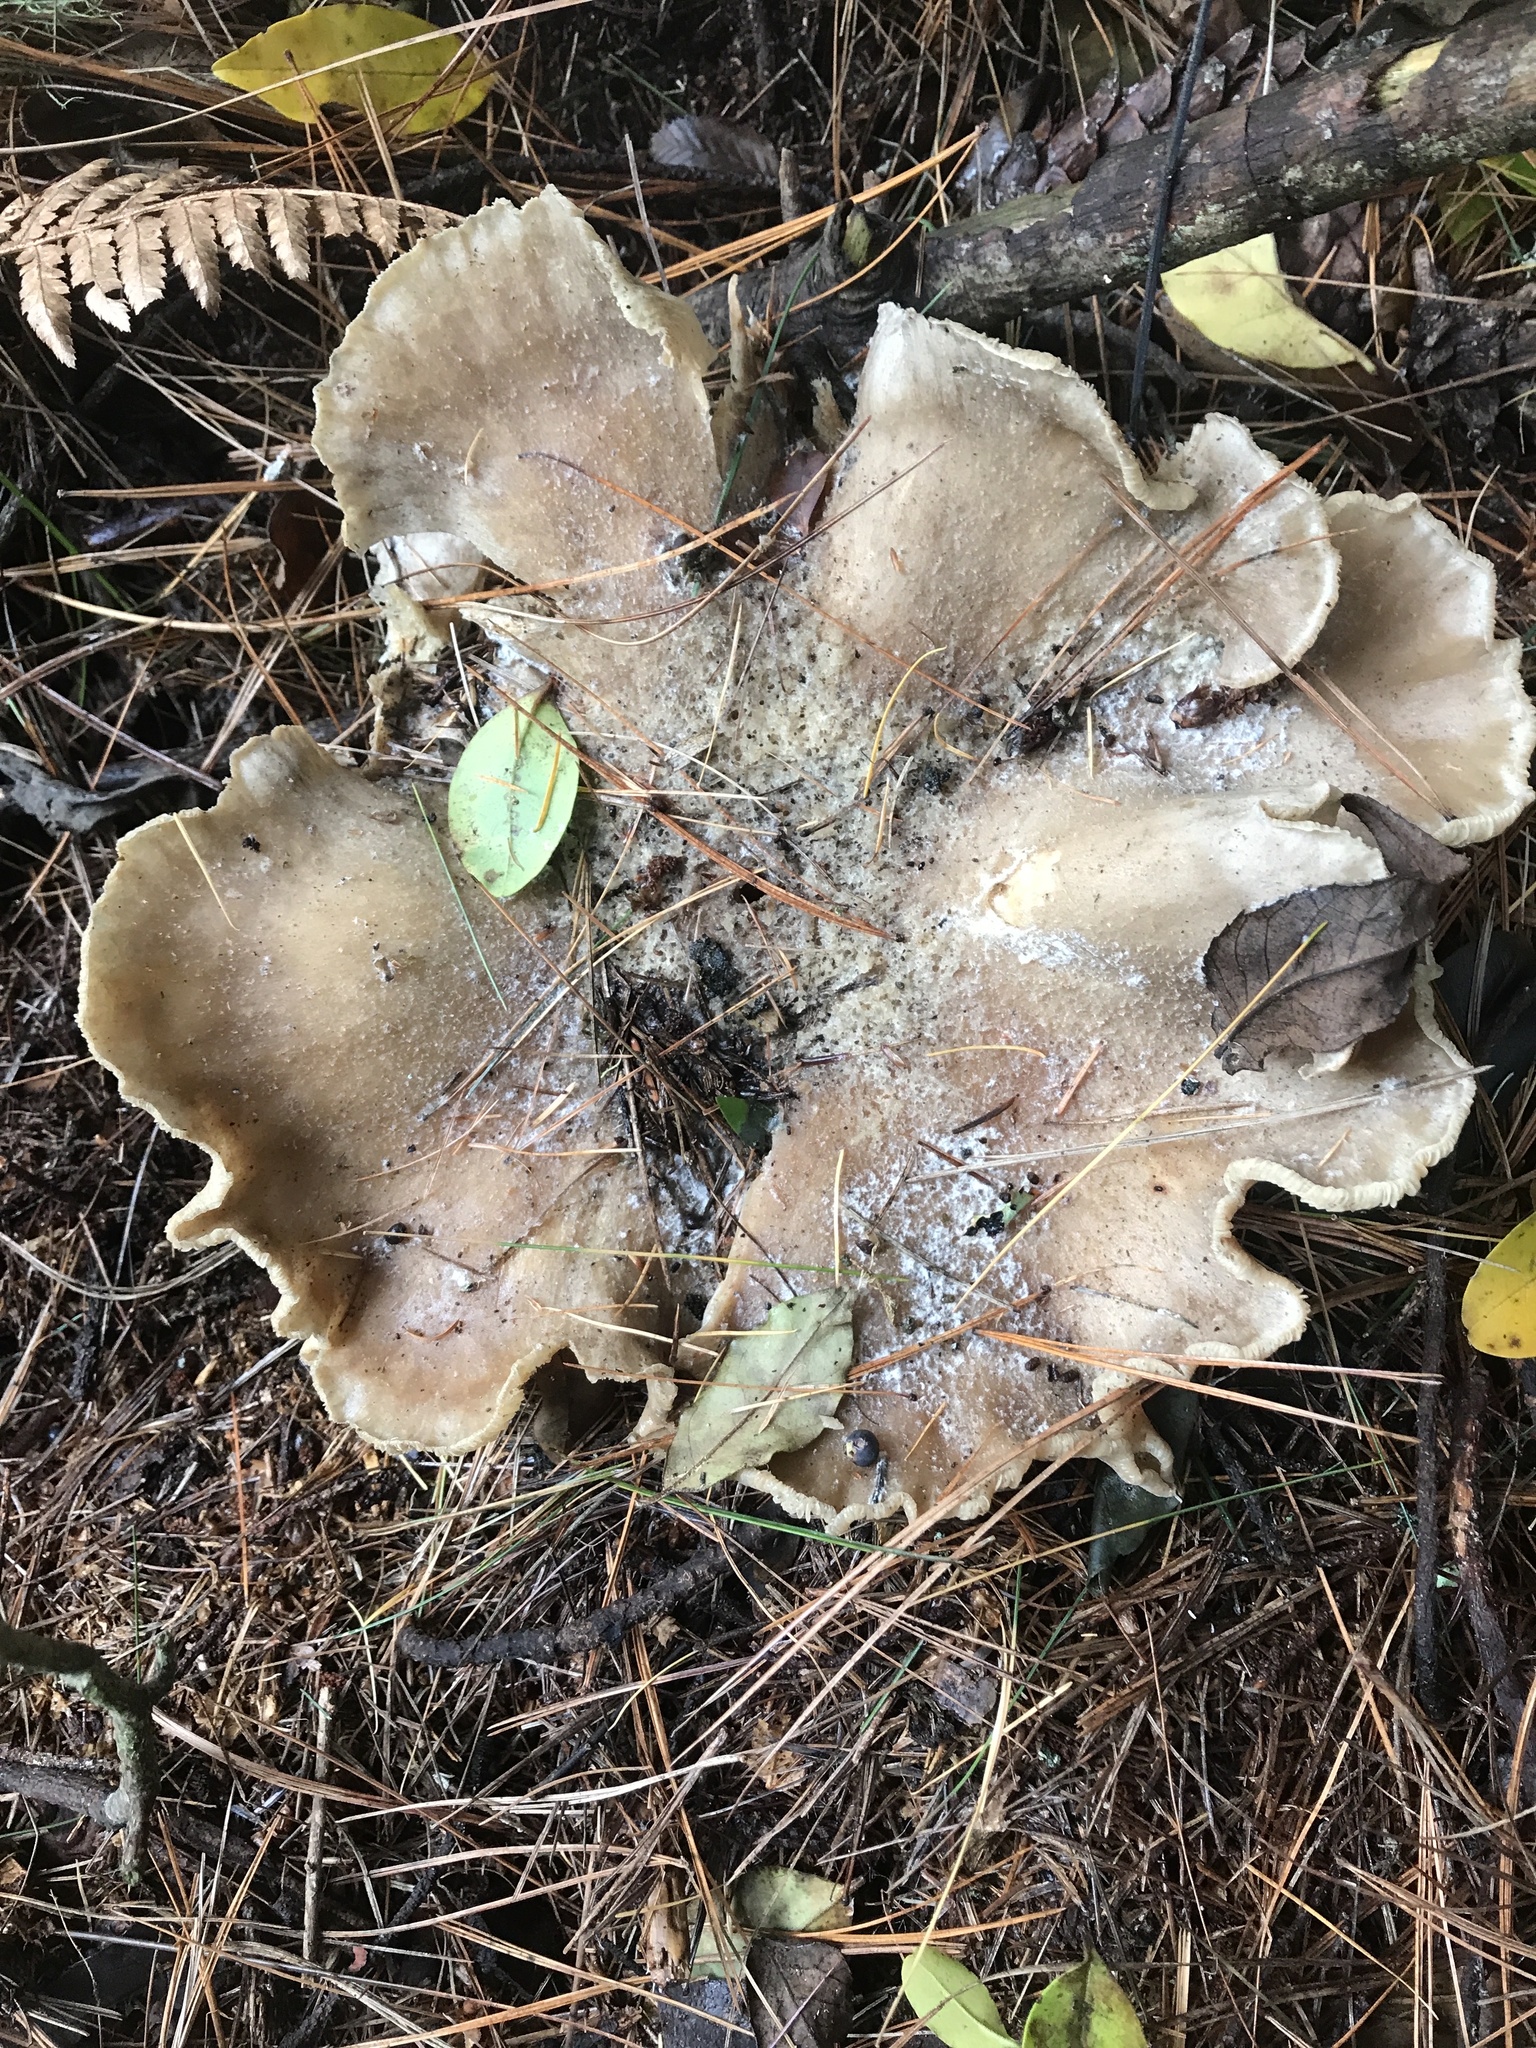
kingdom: Fungi
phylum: Basidiomycota
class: Agaricomycetes
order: Agaricales
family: Tricholomataceae
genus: Clitocybe
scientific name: Clitocybe nebularis
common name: Clouded agaric
